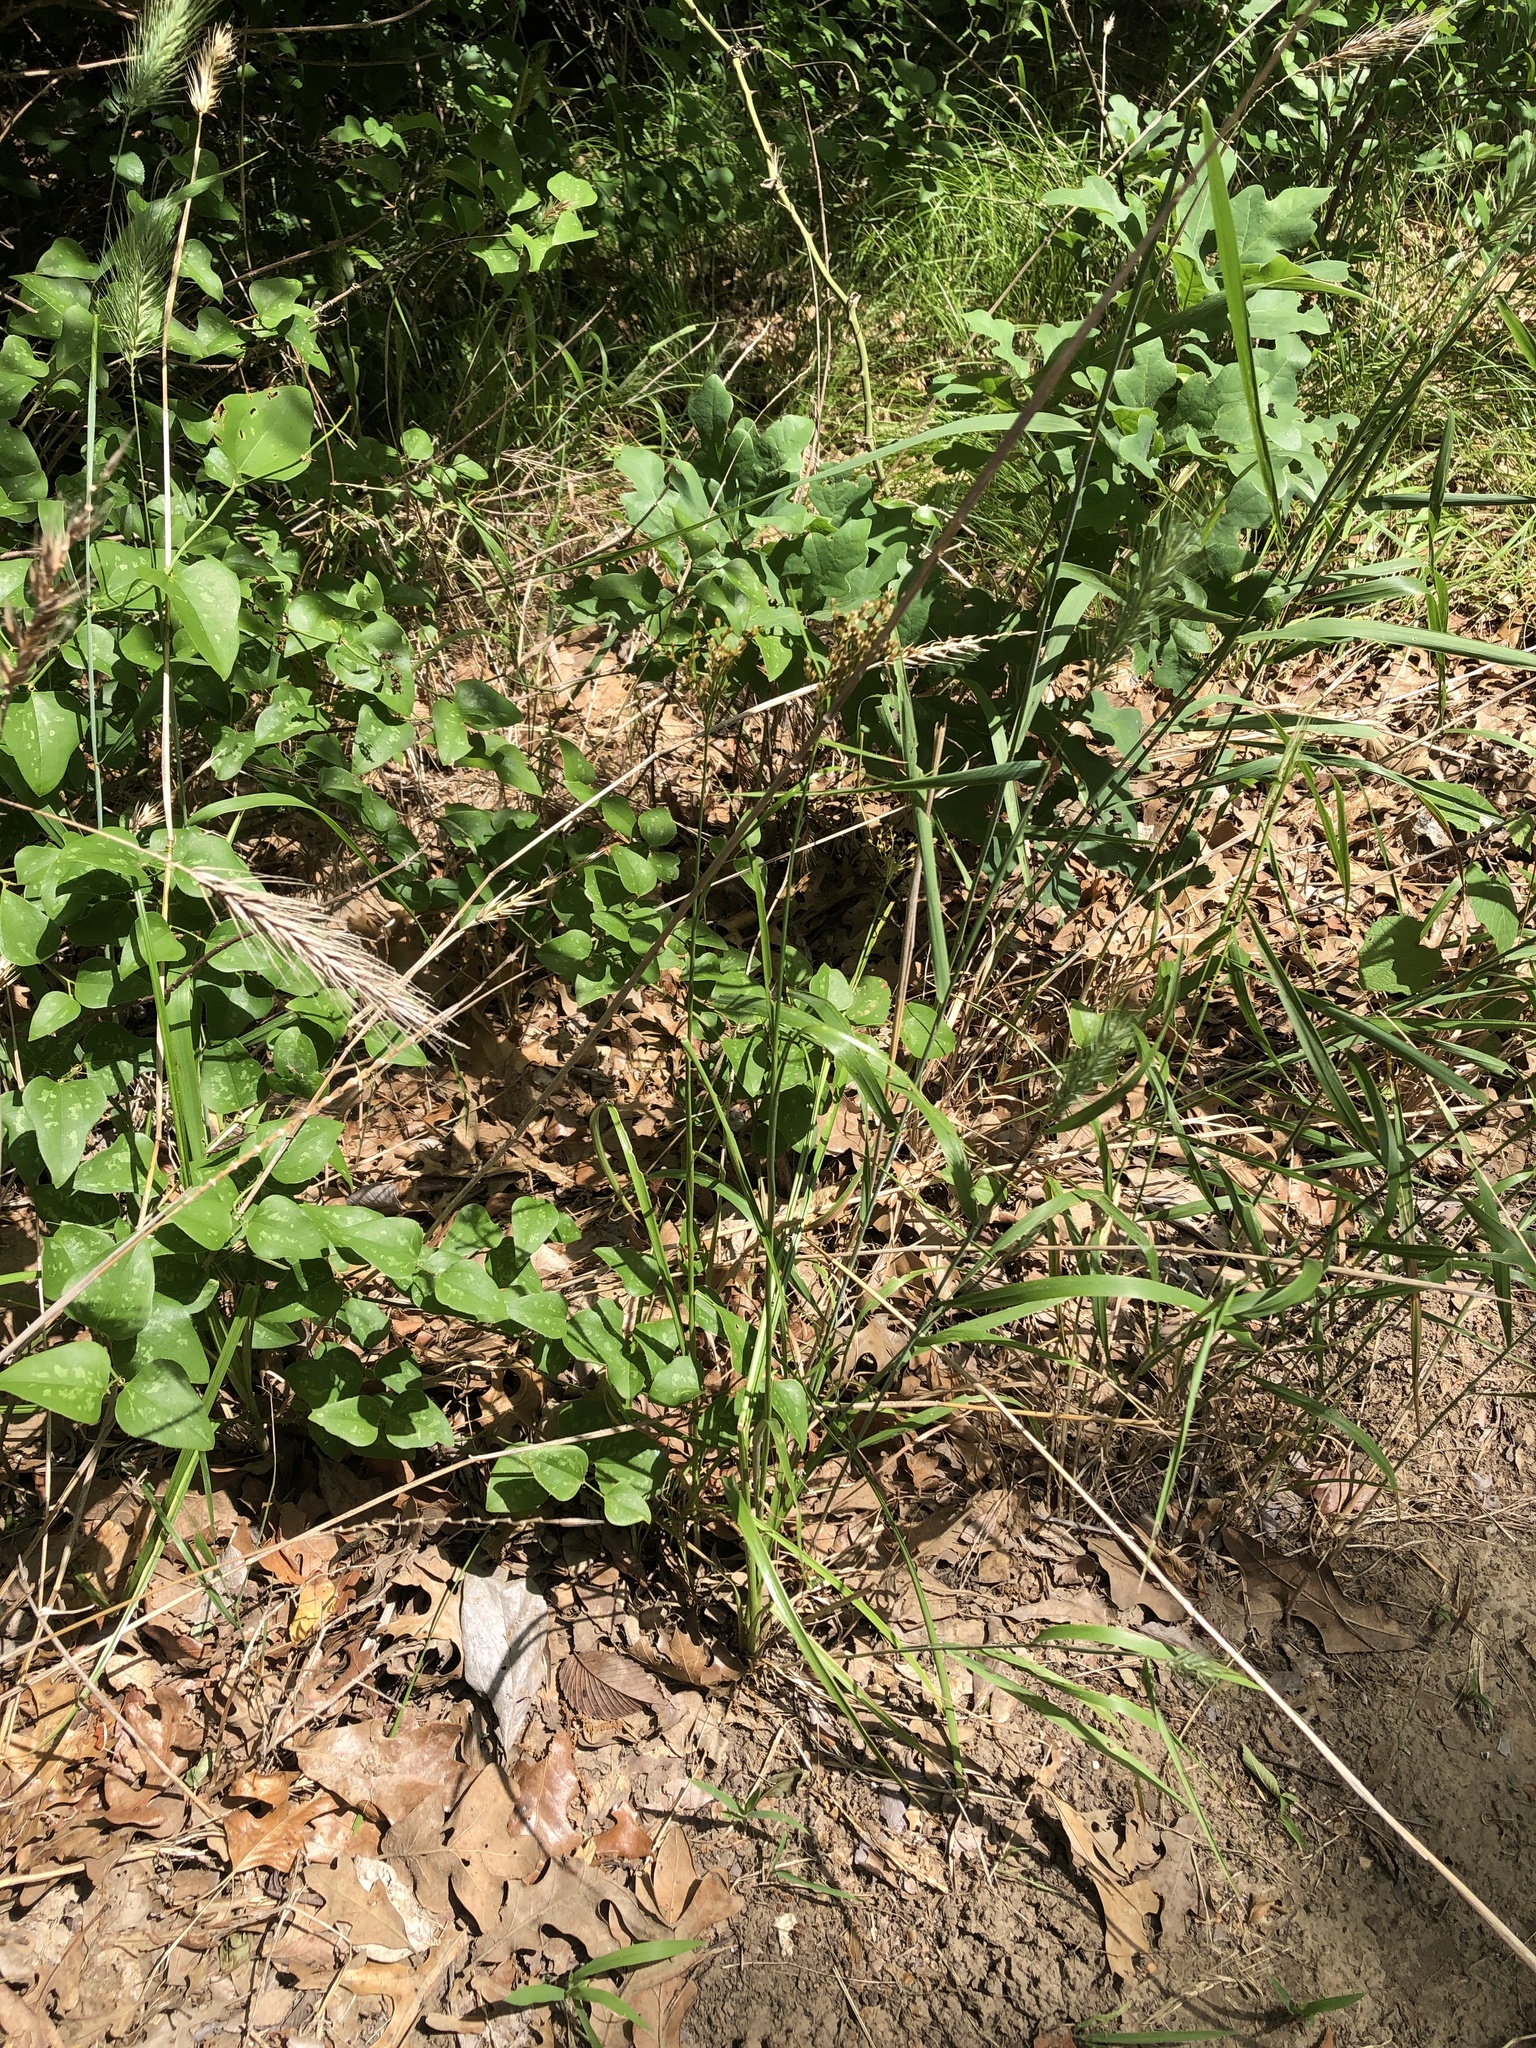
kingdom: Plantae
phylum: Tracheophyta
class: Liliopsida
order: Poales
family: Juncaceae
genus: Juncus
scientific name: Juncus marginatus
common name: Grass-leaf rush
